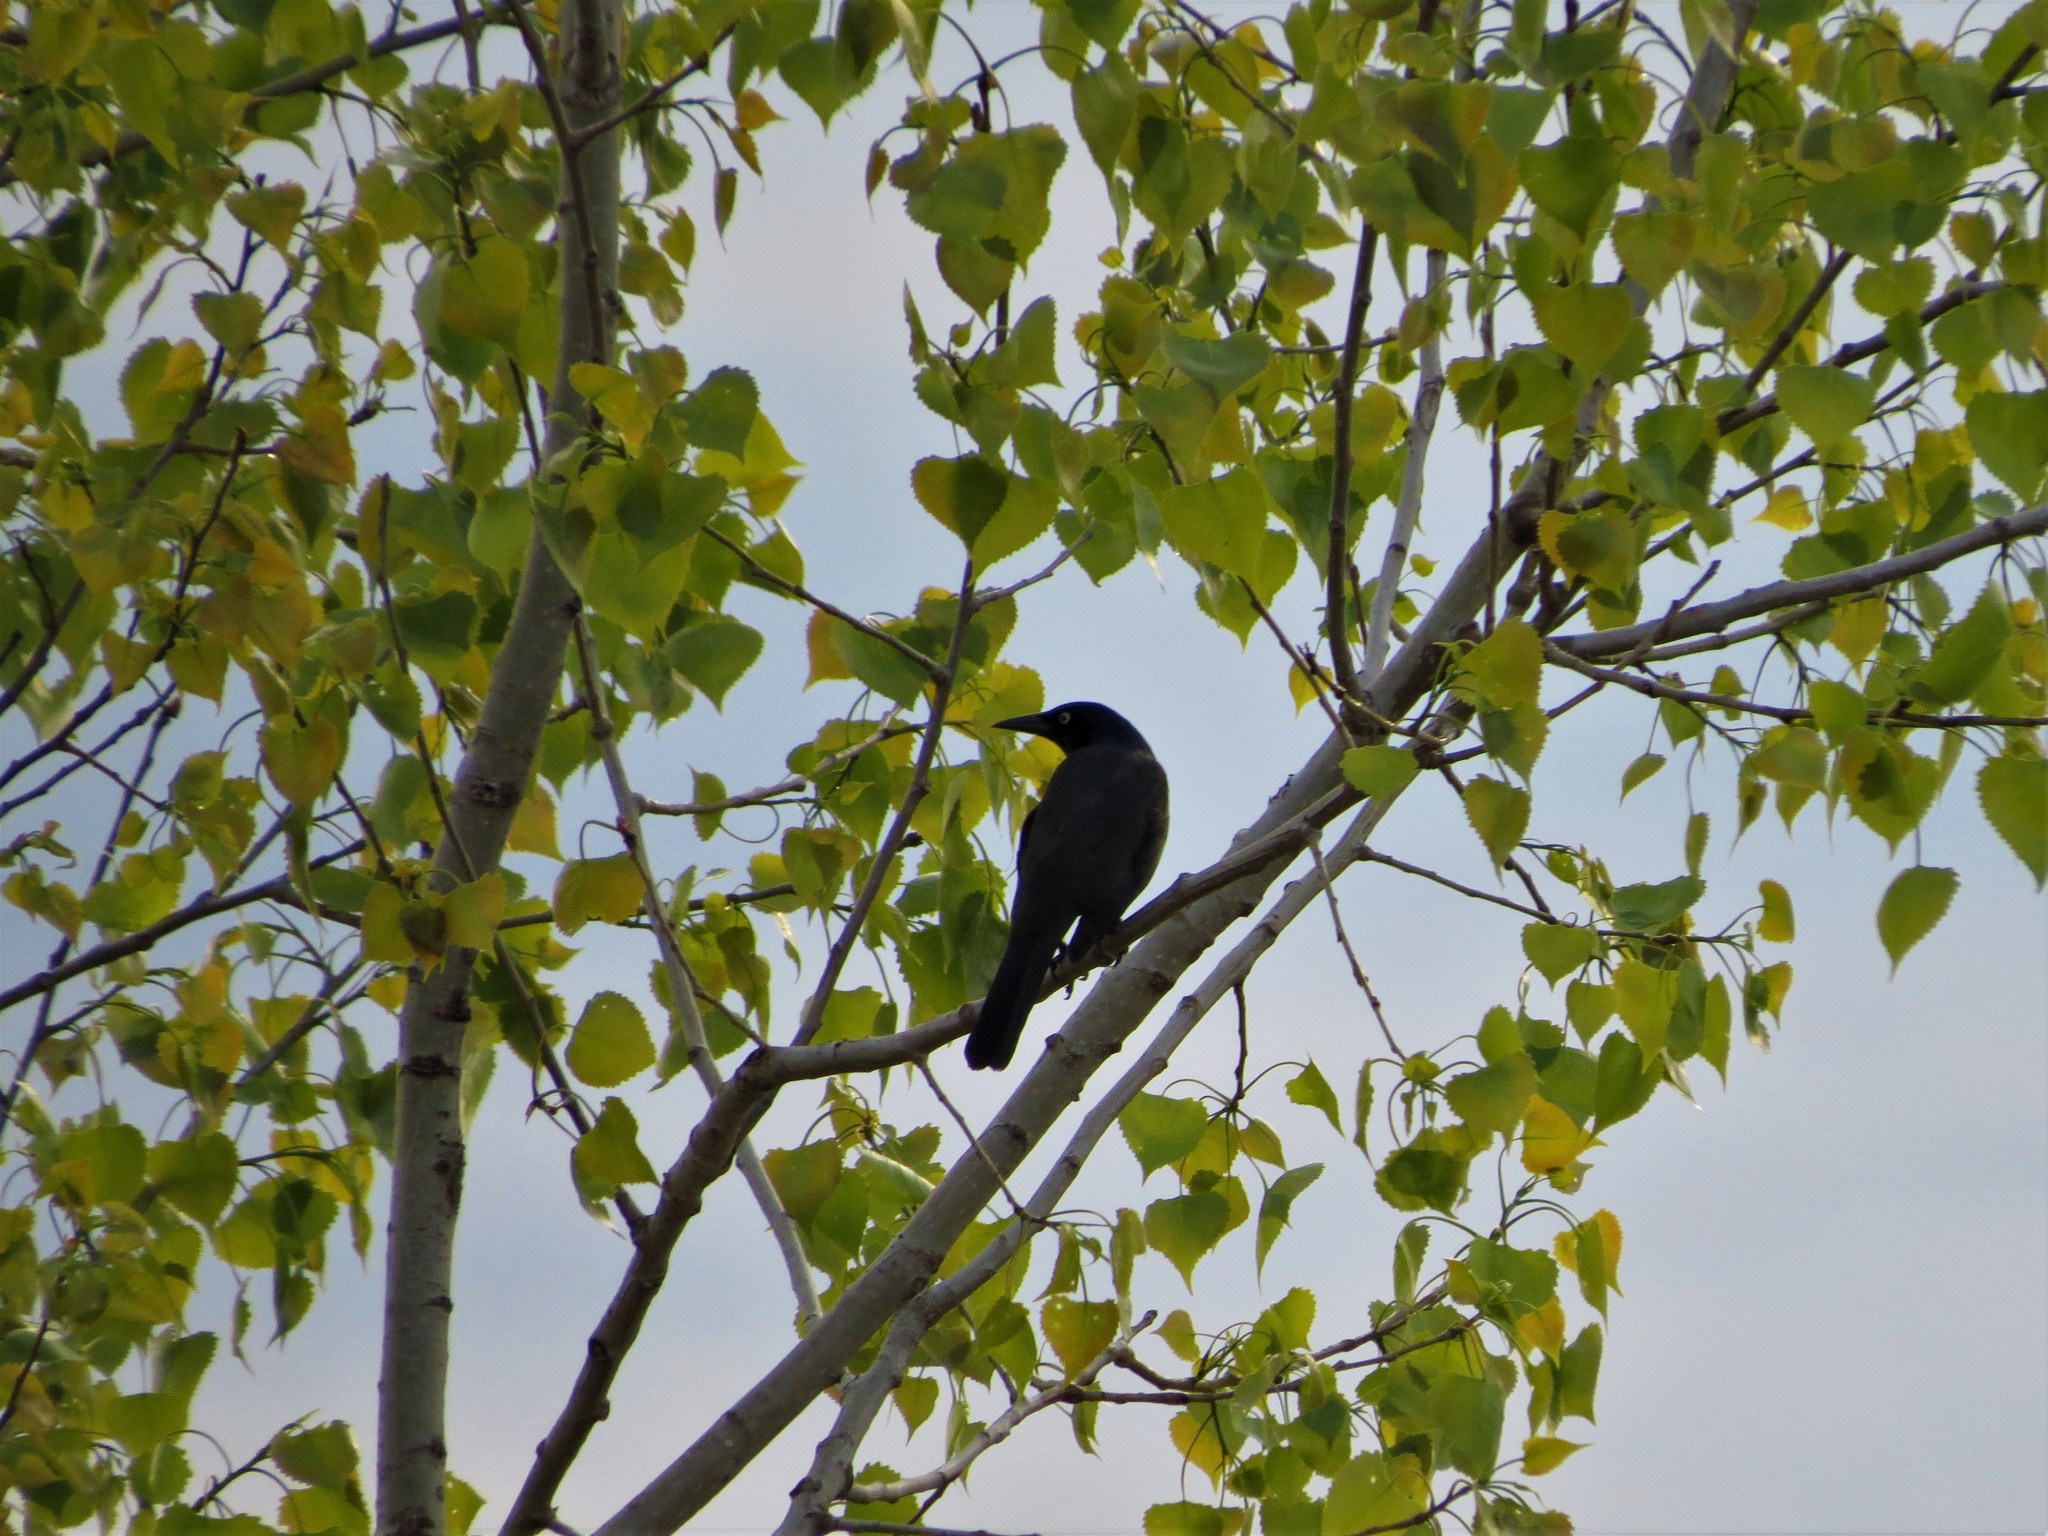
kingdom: Animalia
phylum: Chordata
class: Aves
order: Passeriformes
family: Icteridae
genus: Quiscalus
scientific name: Quiscalus quiscula
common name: Common grackle
